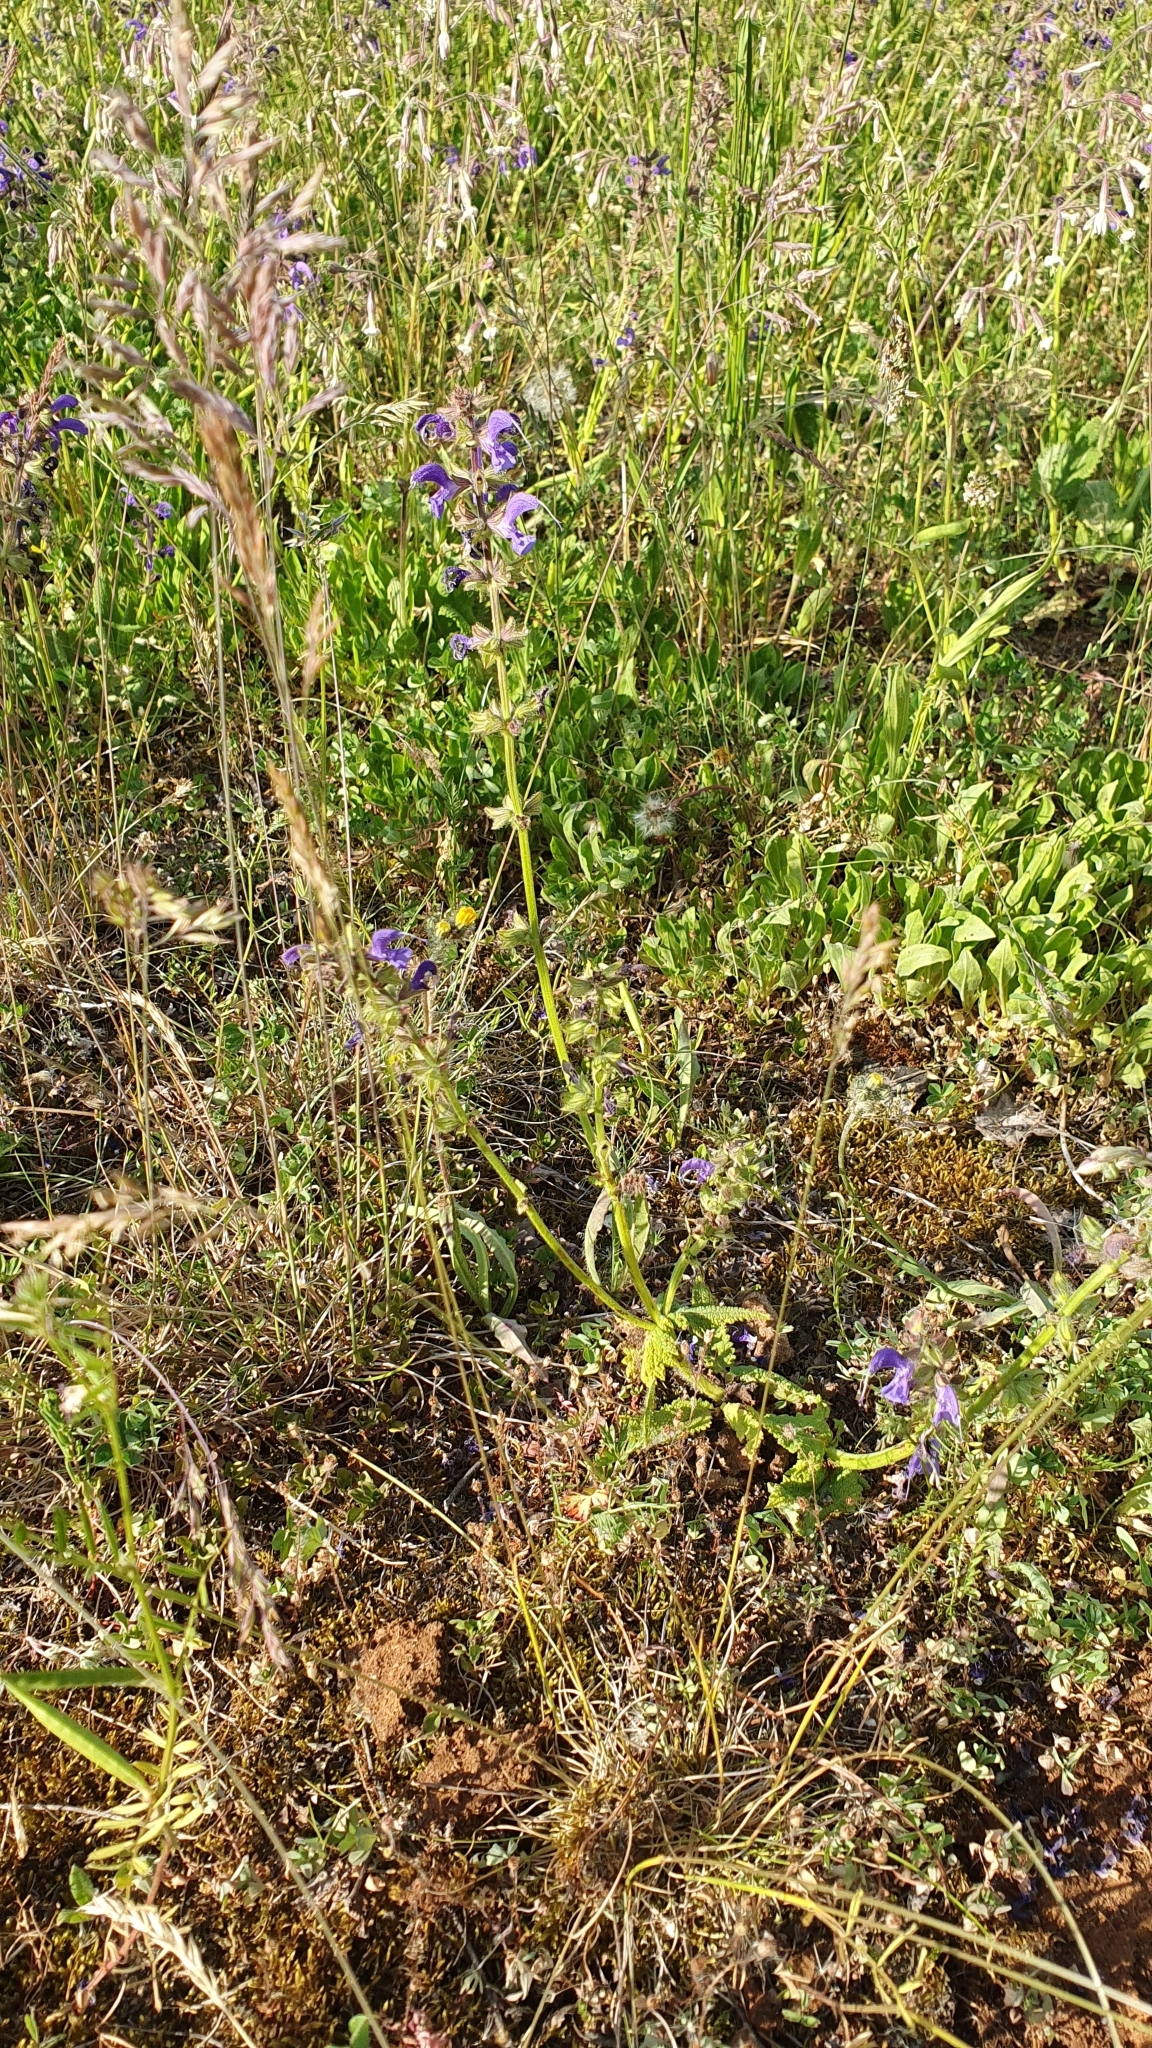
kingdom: Plantae
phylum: Tracheophyta
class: Magnoliopsida
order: Lamiales
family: Lamiaceae
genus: Salvia
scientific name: Salvia pratensis
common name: Meadow sage
